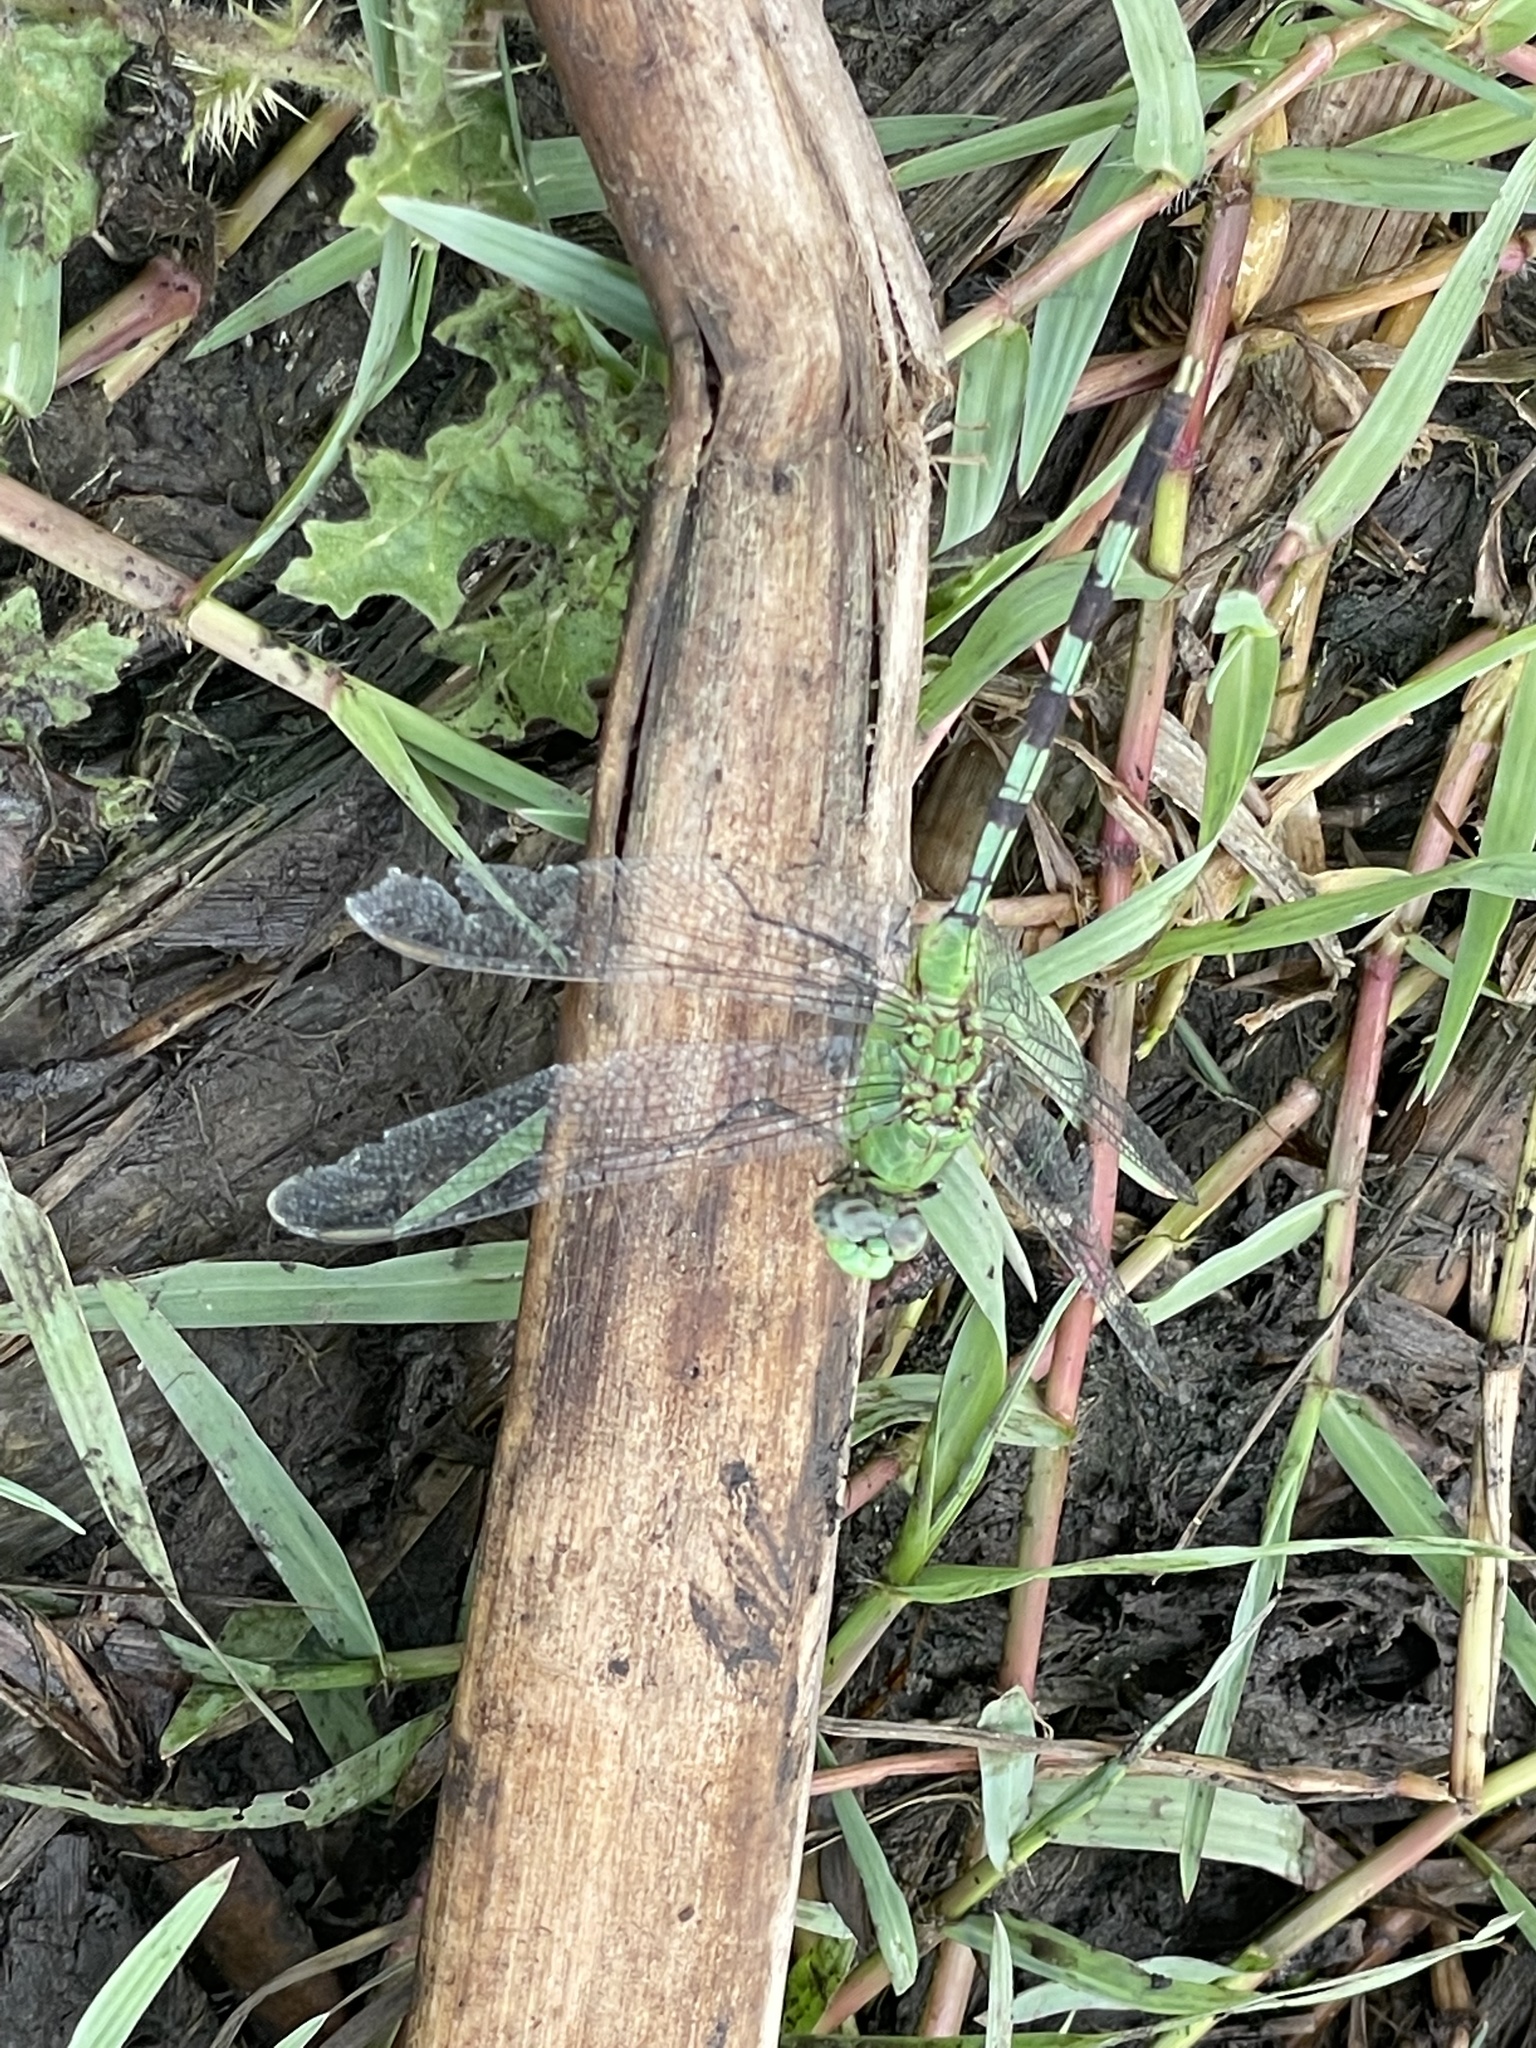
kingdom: Animalia
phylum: Arthropoda
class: Insecta
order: Odonata
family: Libellulidae
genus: Erythemis
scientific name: Erythemis vesiculosa
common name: Great pondhawk
